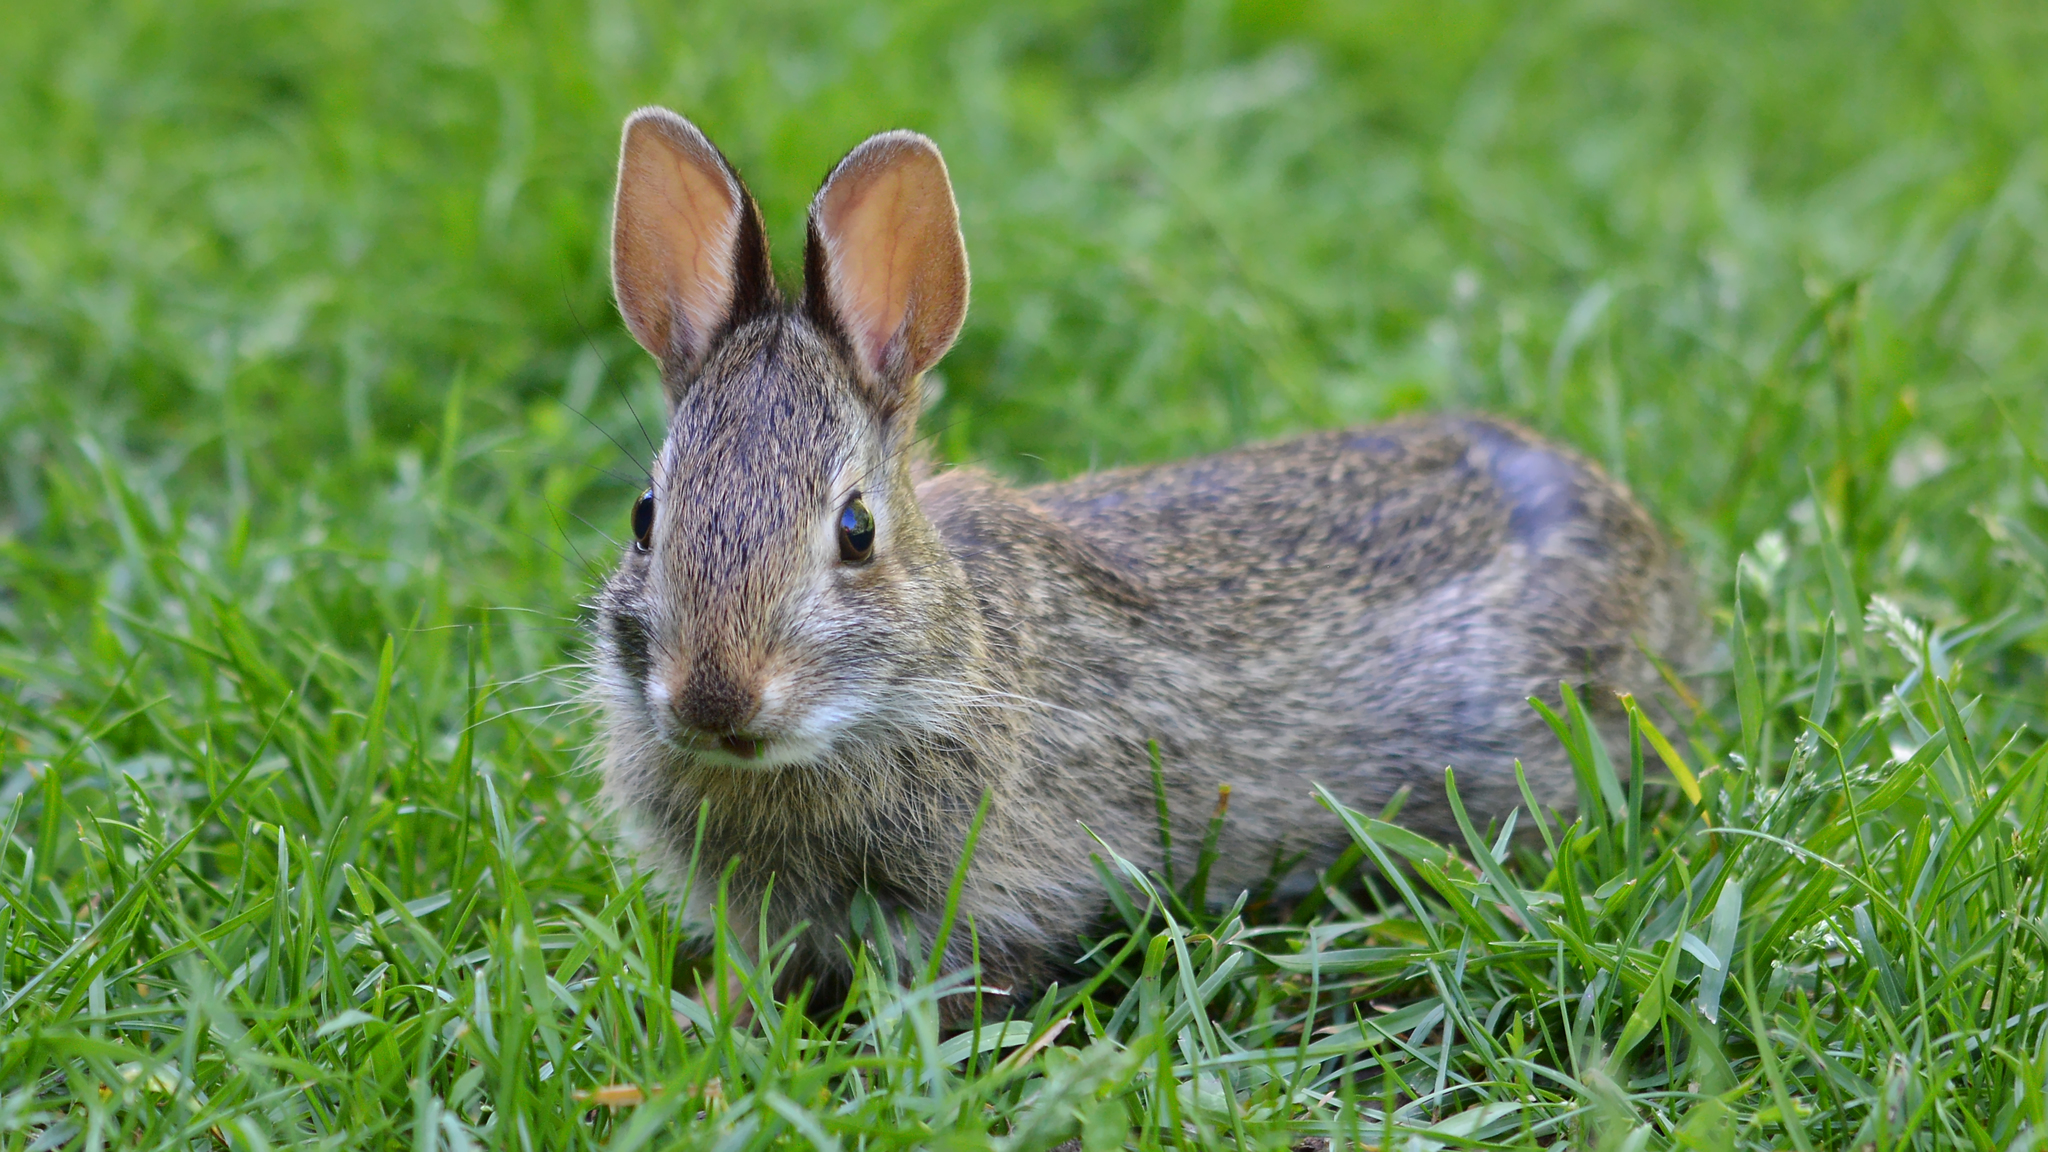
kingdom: Animalia
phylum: Chordata
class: Mammalia
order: Lagomorpha
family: Leporidae
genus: Sylvilagus
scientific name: Sylvilagus floridanus
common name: Eastern cottontail
